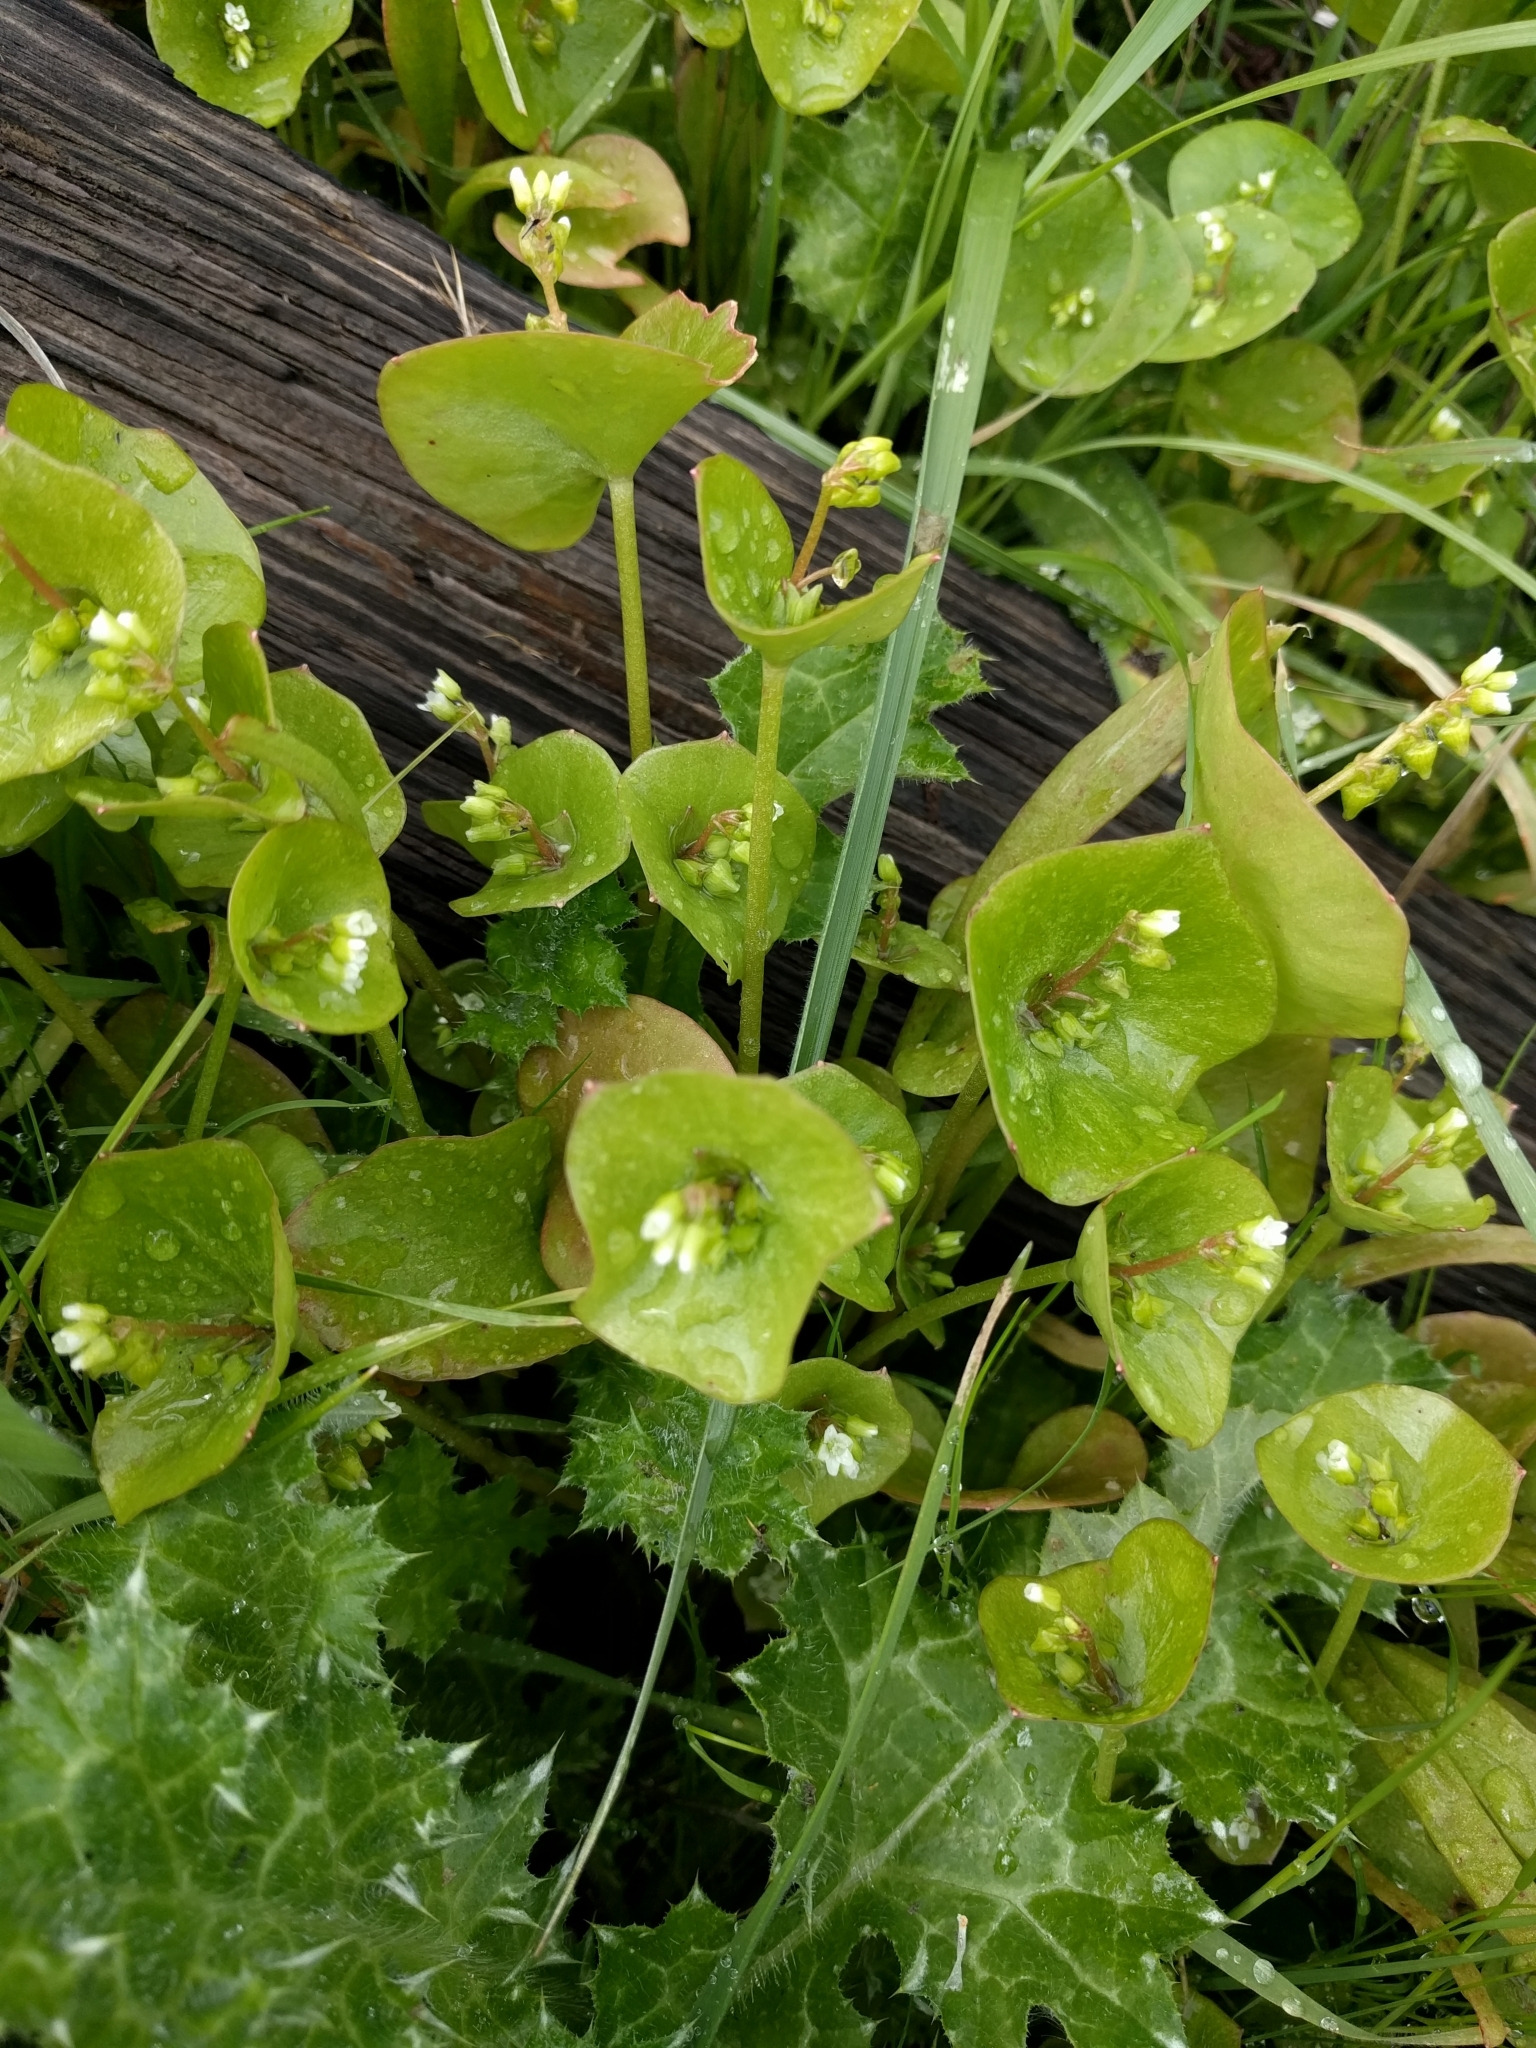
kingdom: Plantae
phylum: Tracheophyta
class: Magnoliopsida
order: Caryophyllales
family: Montiaceae
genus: Claytonia
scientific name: Claytonia perfoliata
